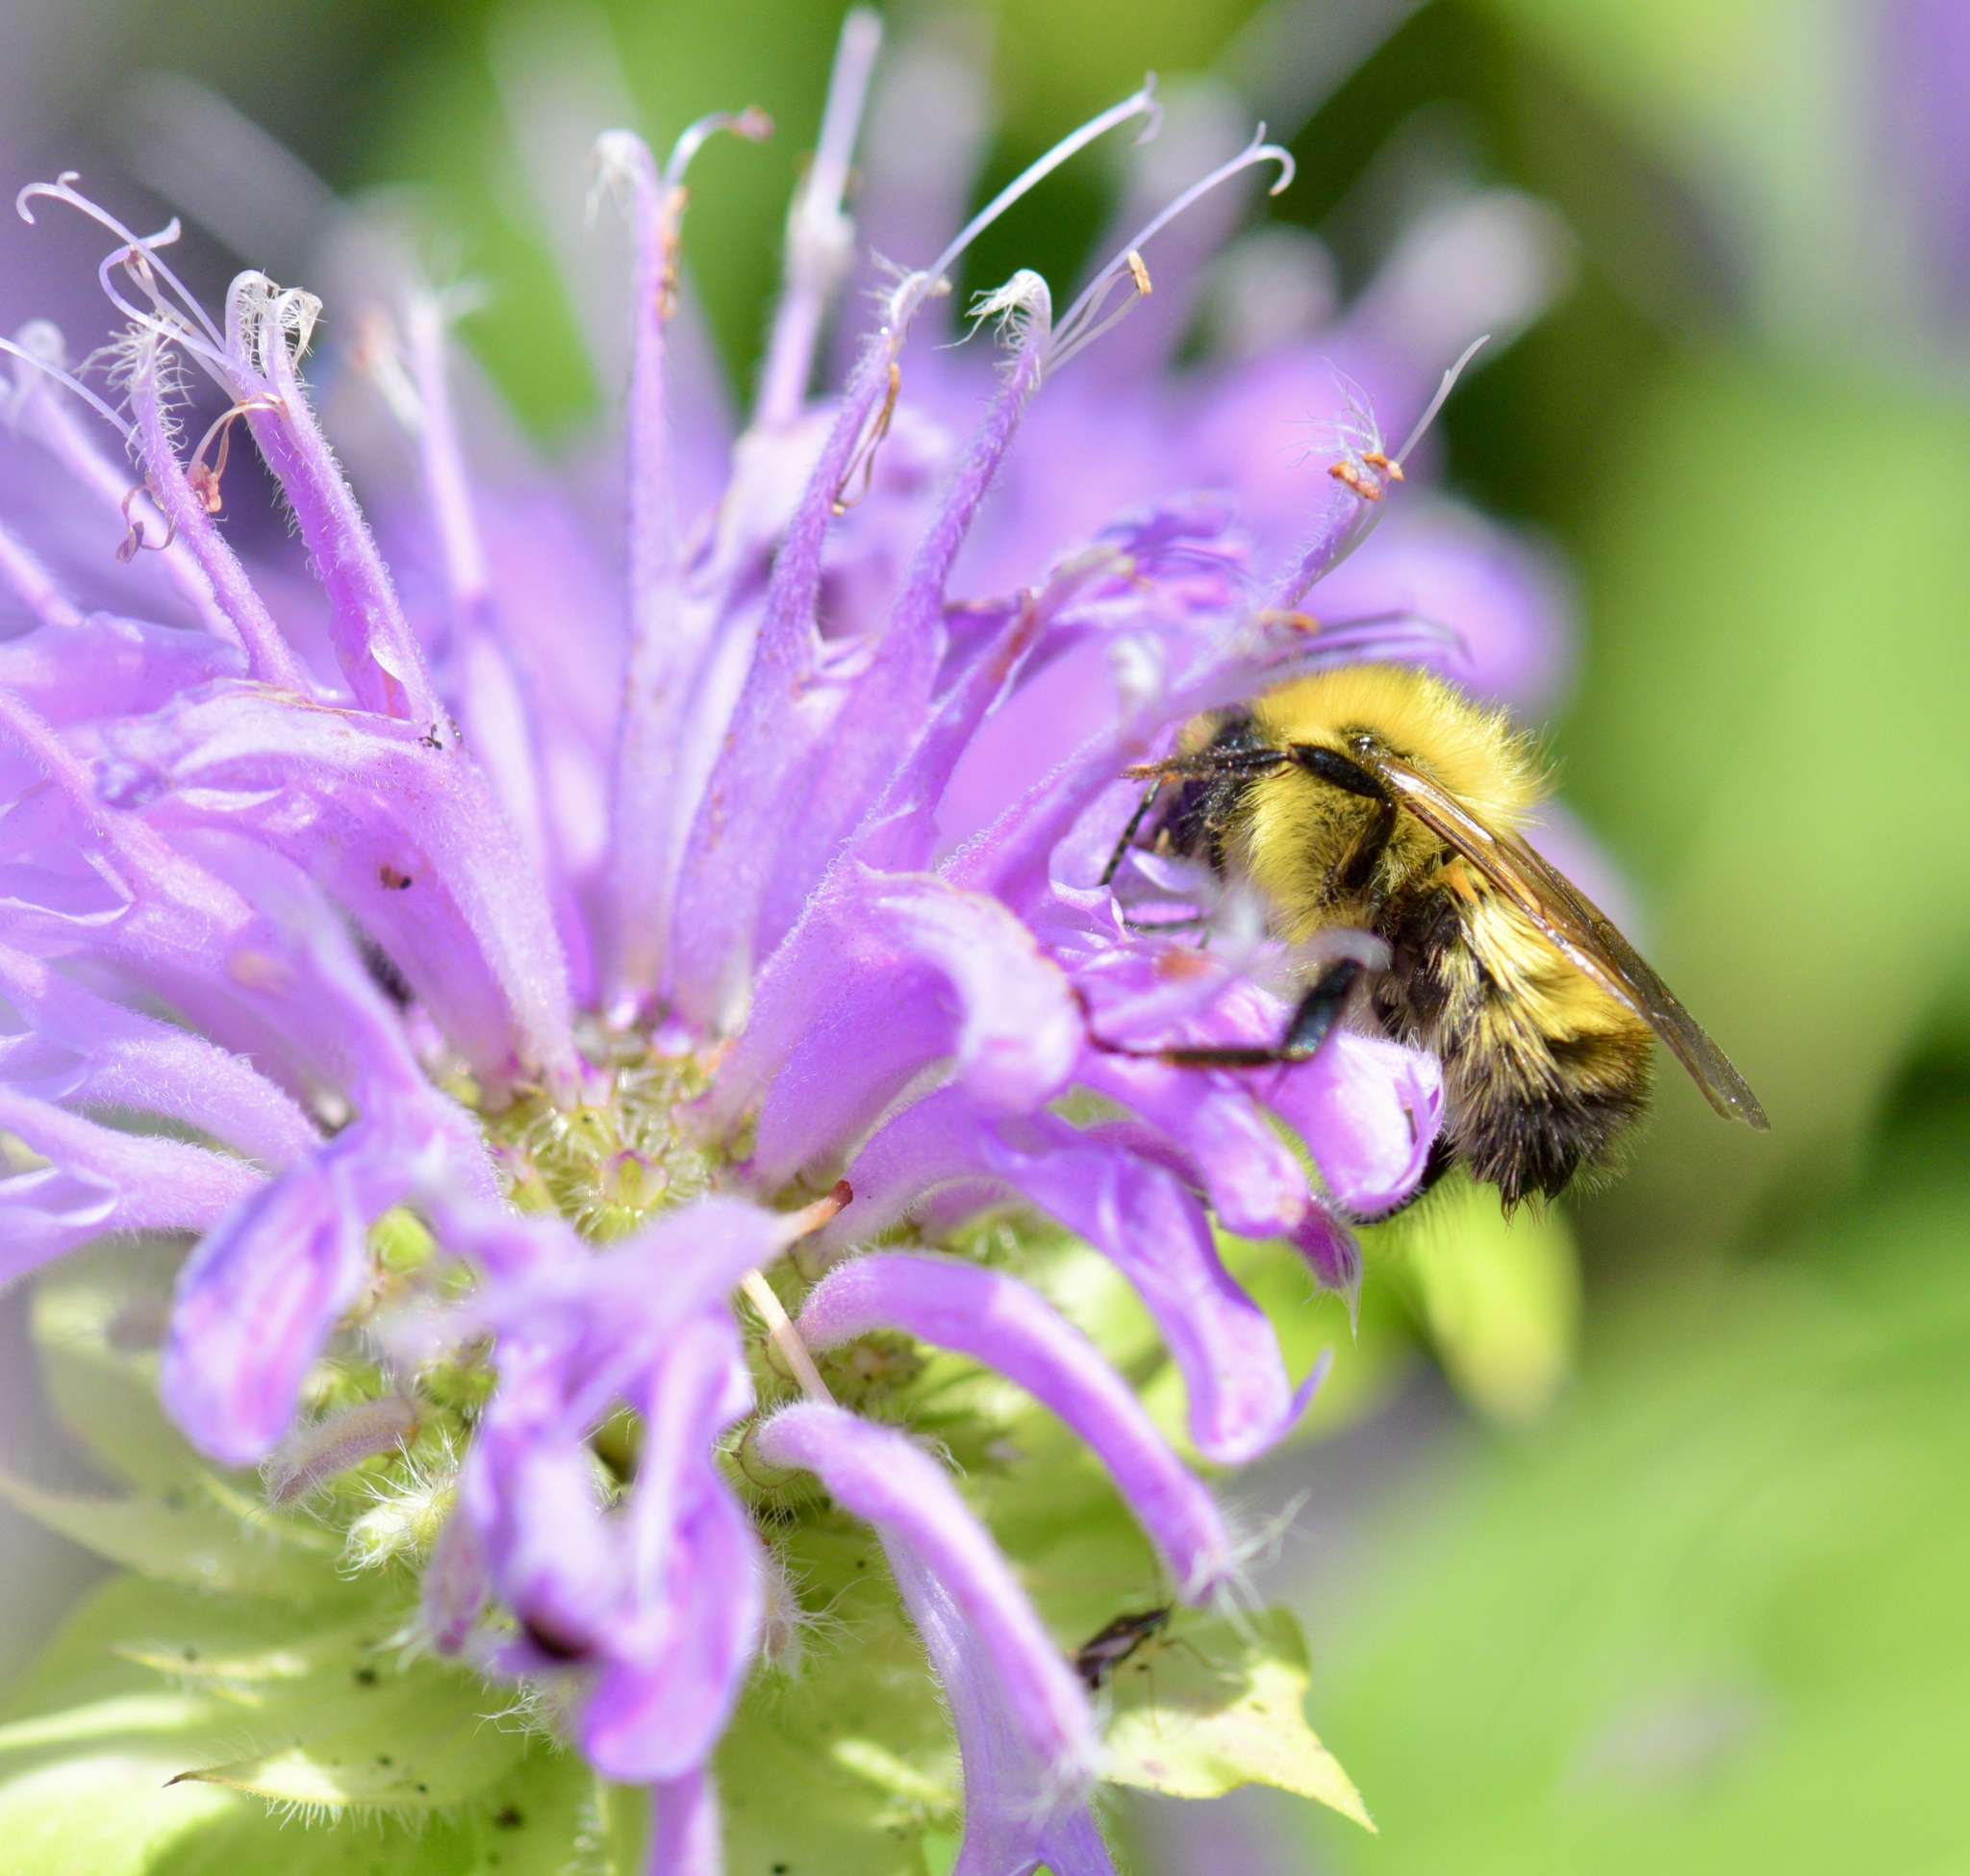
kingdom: Animalia
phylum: Arthropoda
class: Insecta
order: Hymenoptera
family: Apidae
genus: Bombus
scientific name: Bombus perplexus
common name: Confusing bumble bee
